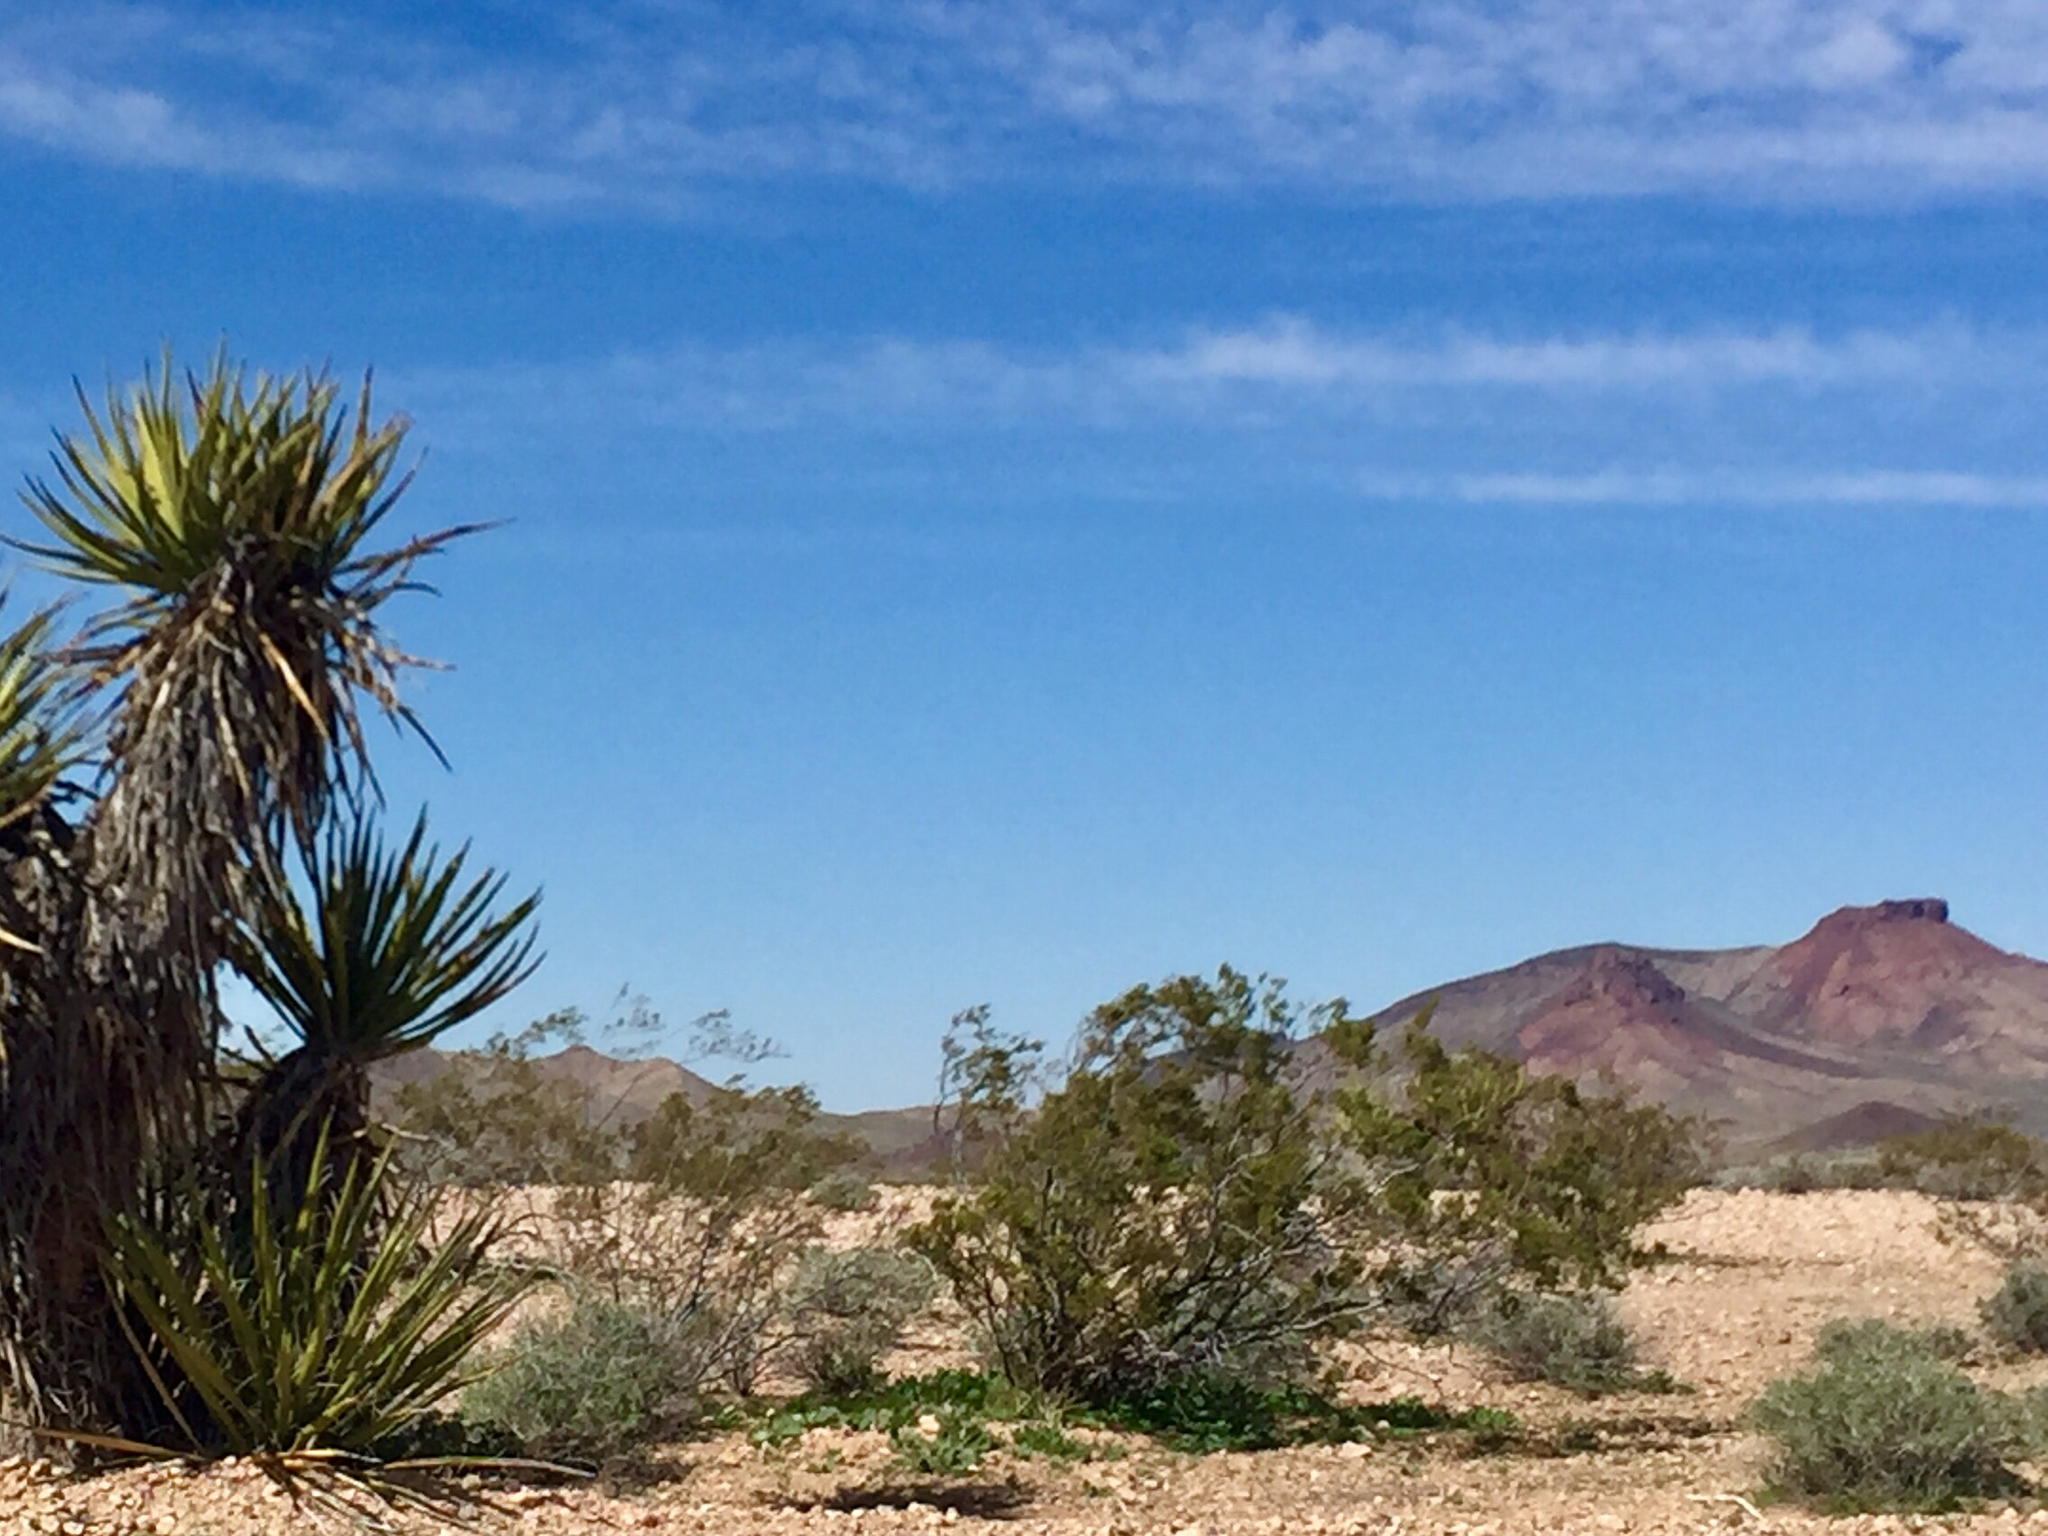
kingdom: Plantae
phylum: Tracheophyta
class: Magnoliopsida
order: Zygophyllales
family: Zygophyllaceae
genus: Larrea
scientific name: Larrea tridentata
